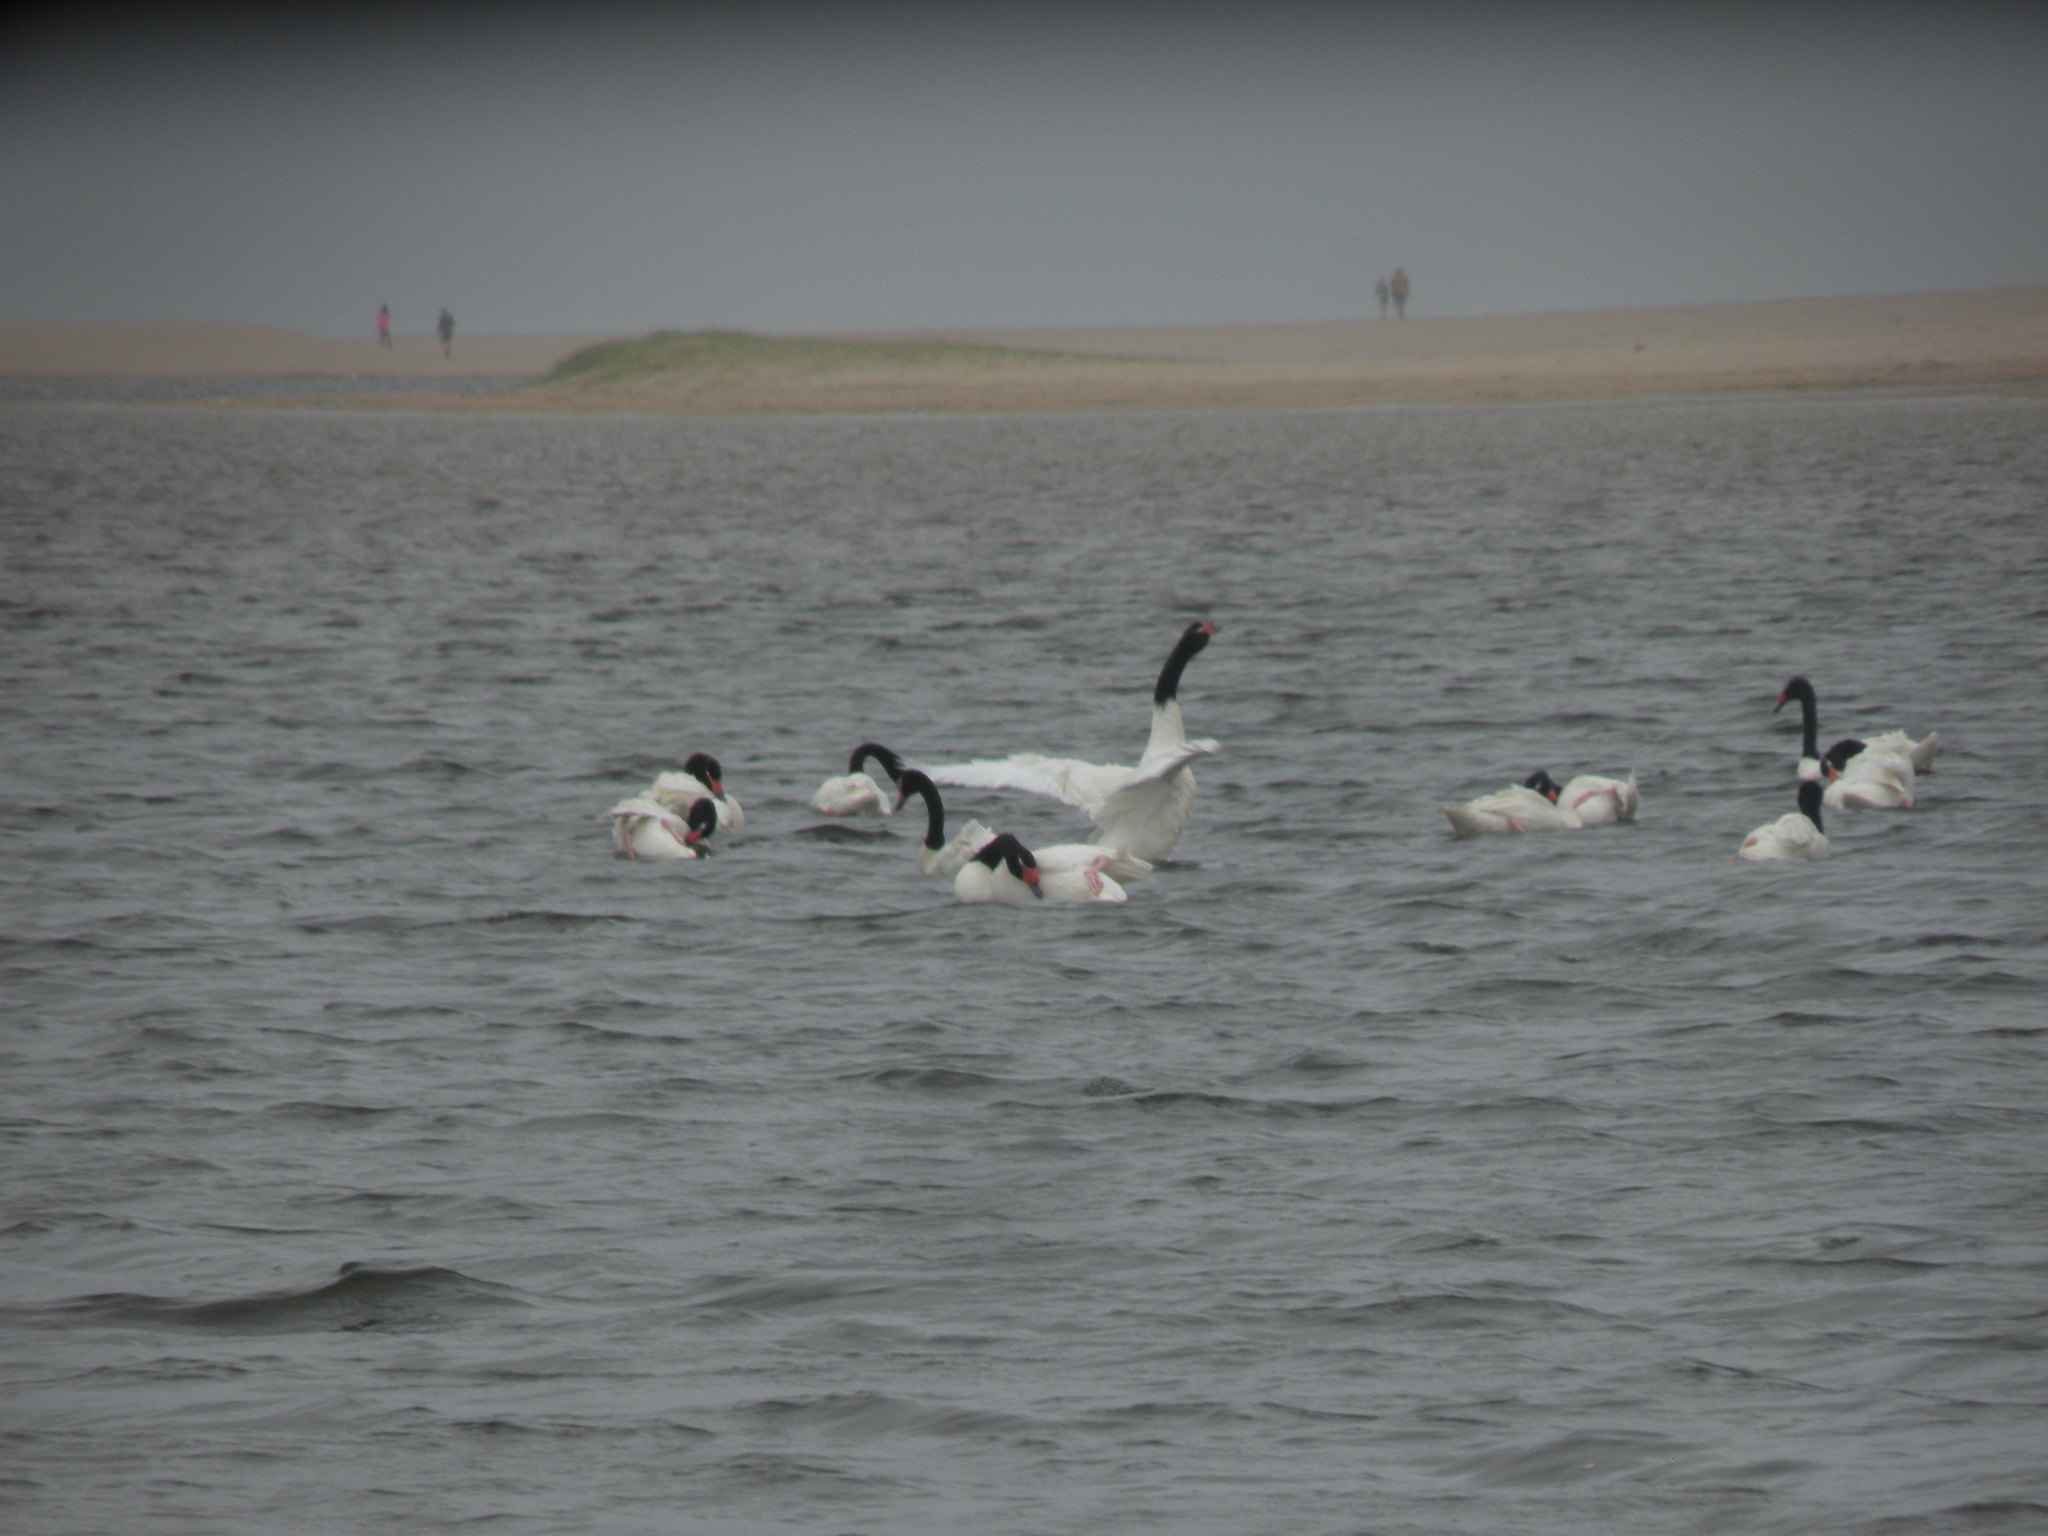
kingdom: Animalia
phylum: Chordata
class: Aves
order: Anseriformes
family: Anatidae
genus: Cygnus
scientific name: Cygnus melancoryphus
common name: Black-necked swan
